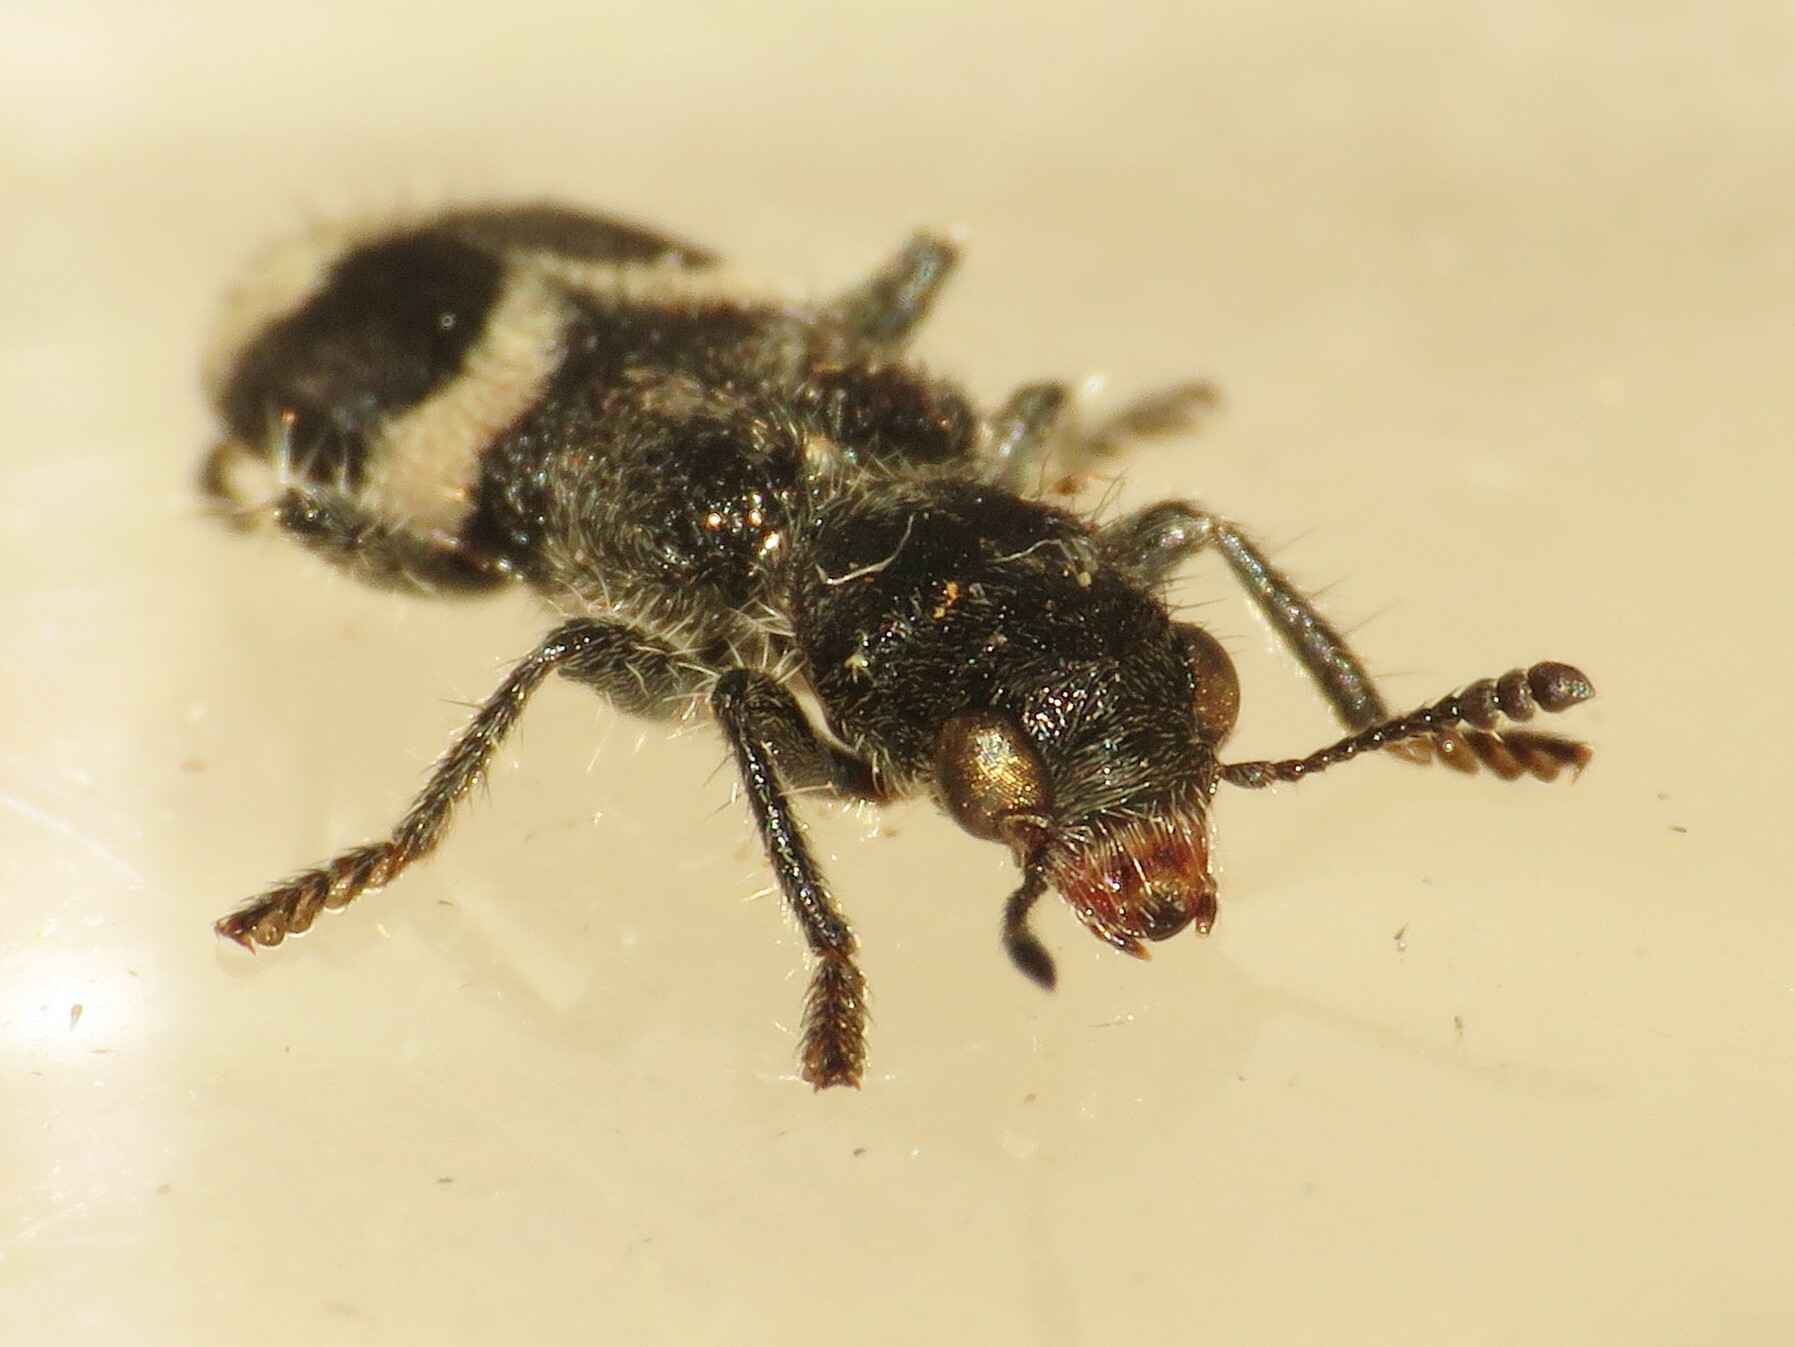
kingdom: Animalia
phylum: Arthropoda
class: Insecta
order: Coleoptera
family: Cleridae
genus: Enoclerus
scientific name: Enoclerus nigripes
